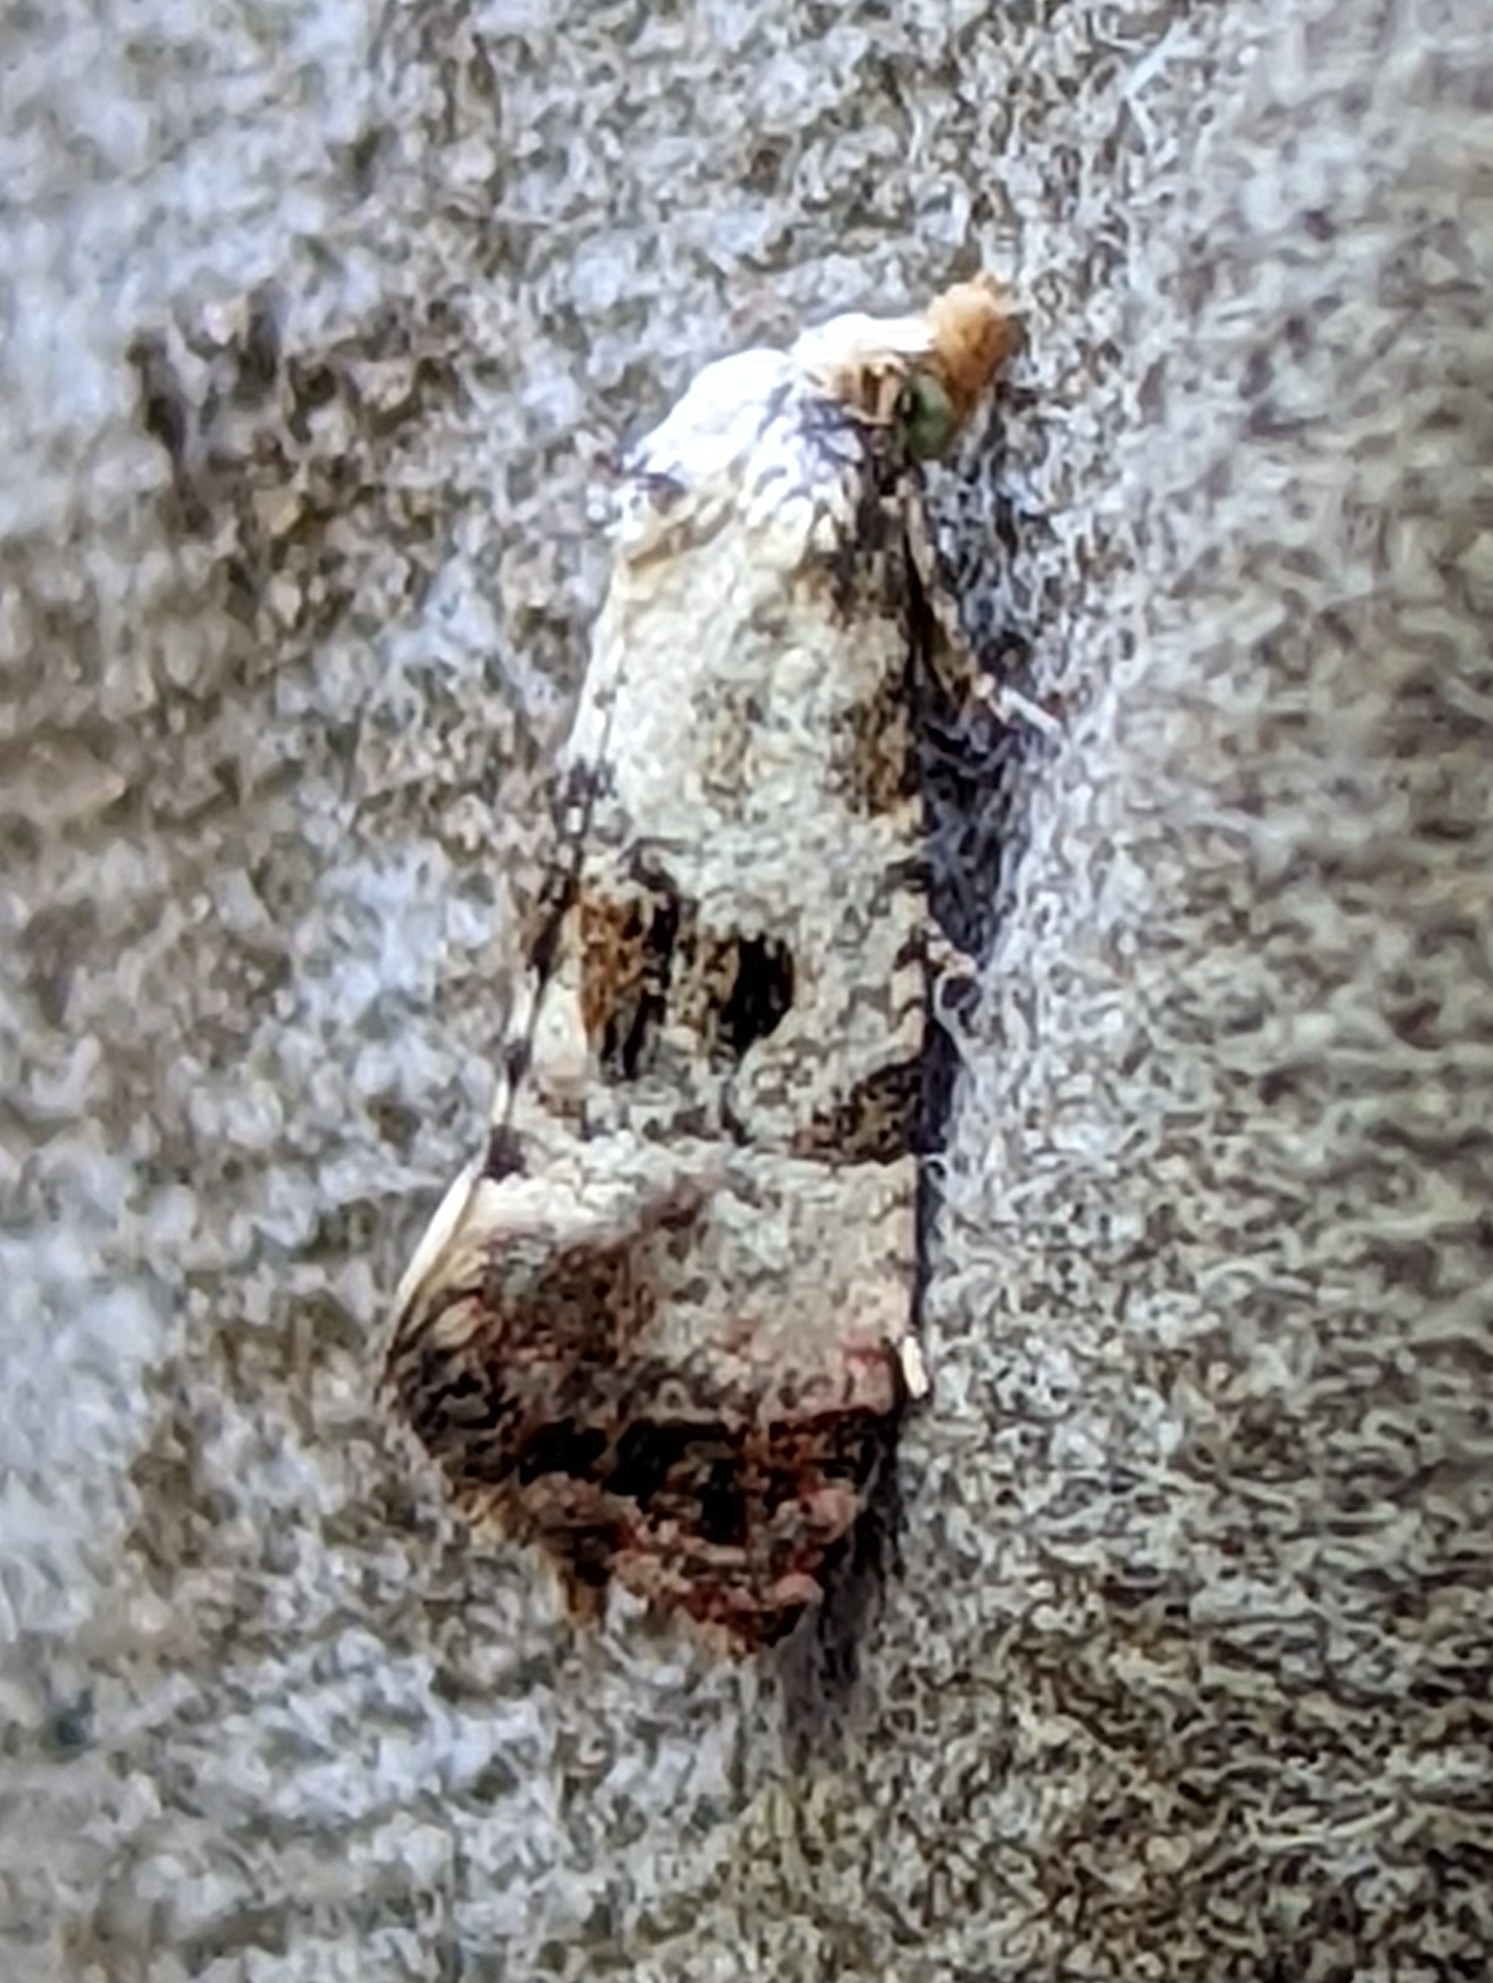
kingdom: Animalia
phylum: Arthropoda
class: Insecta
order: Lepidoptera
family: Tortricidae
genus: Cochylis
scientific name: Cochylis hybridella
